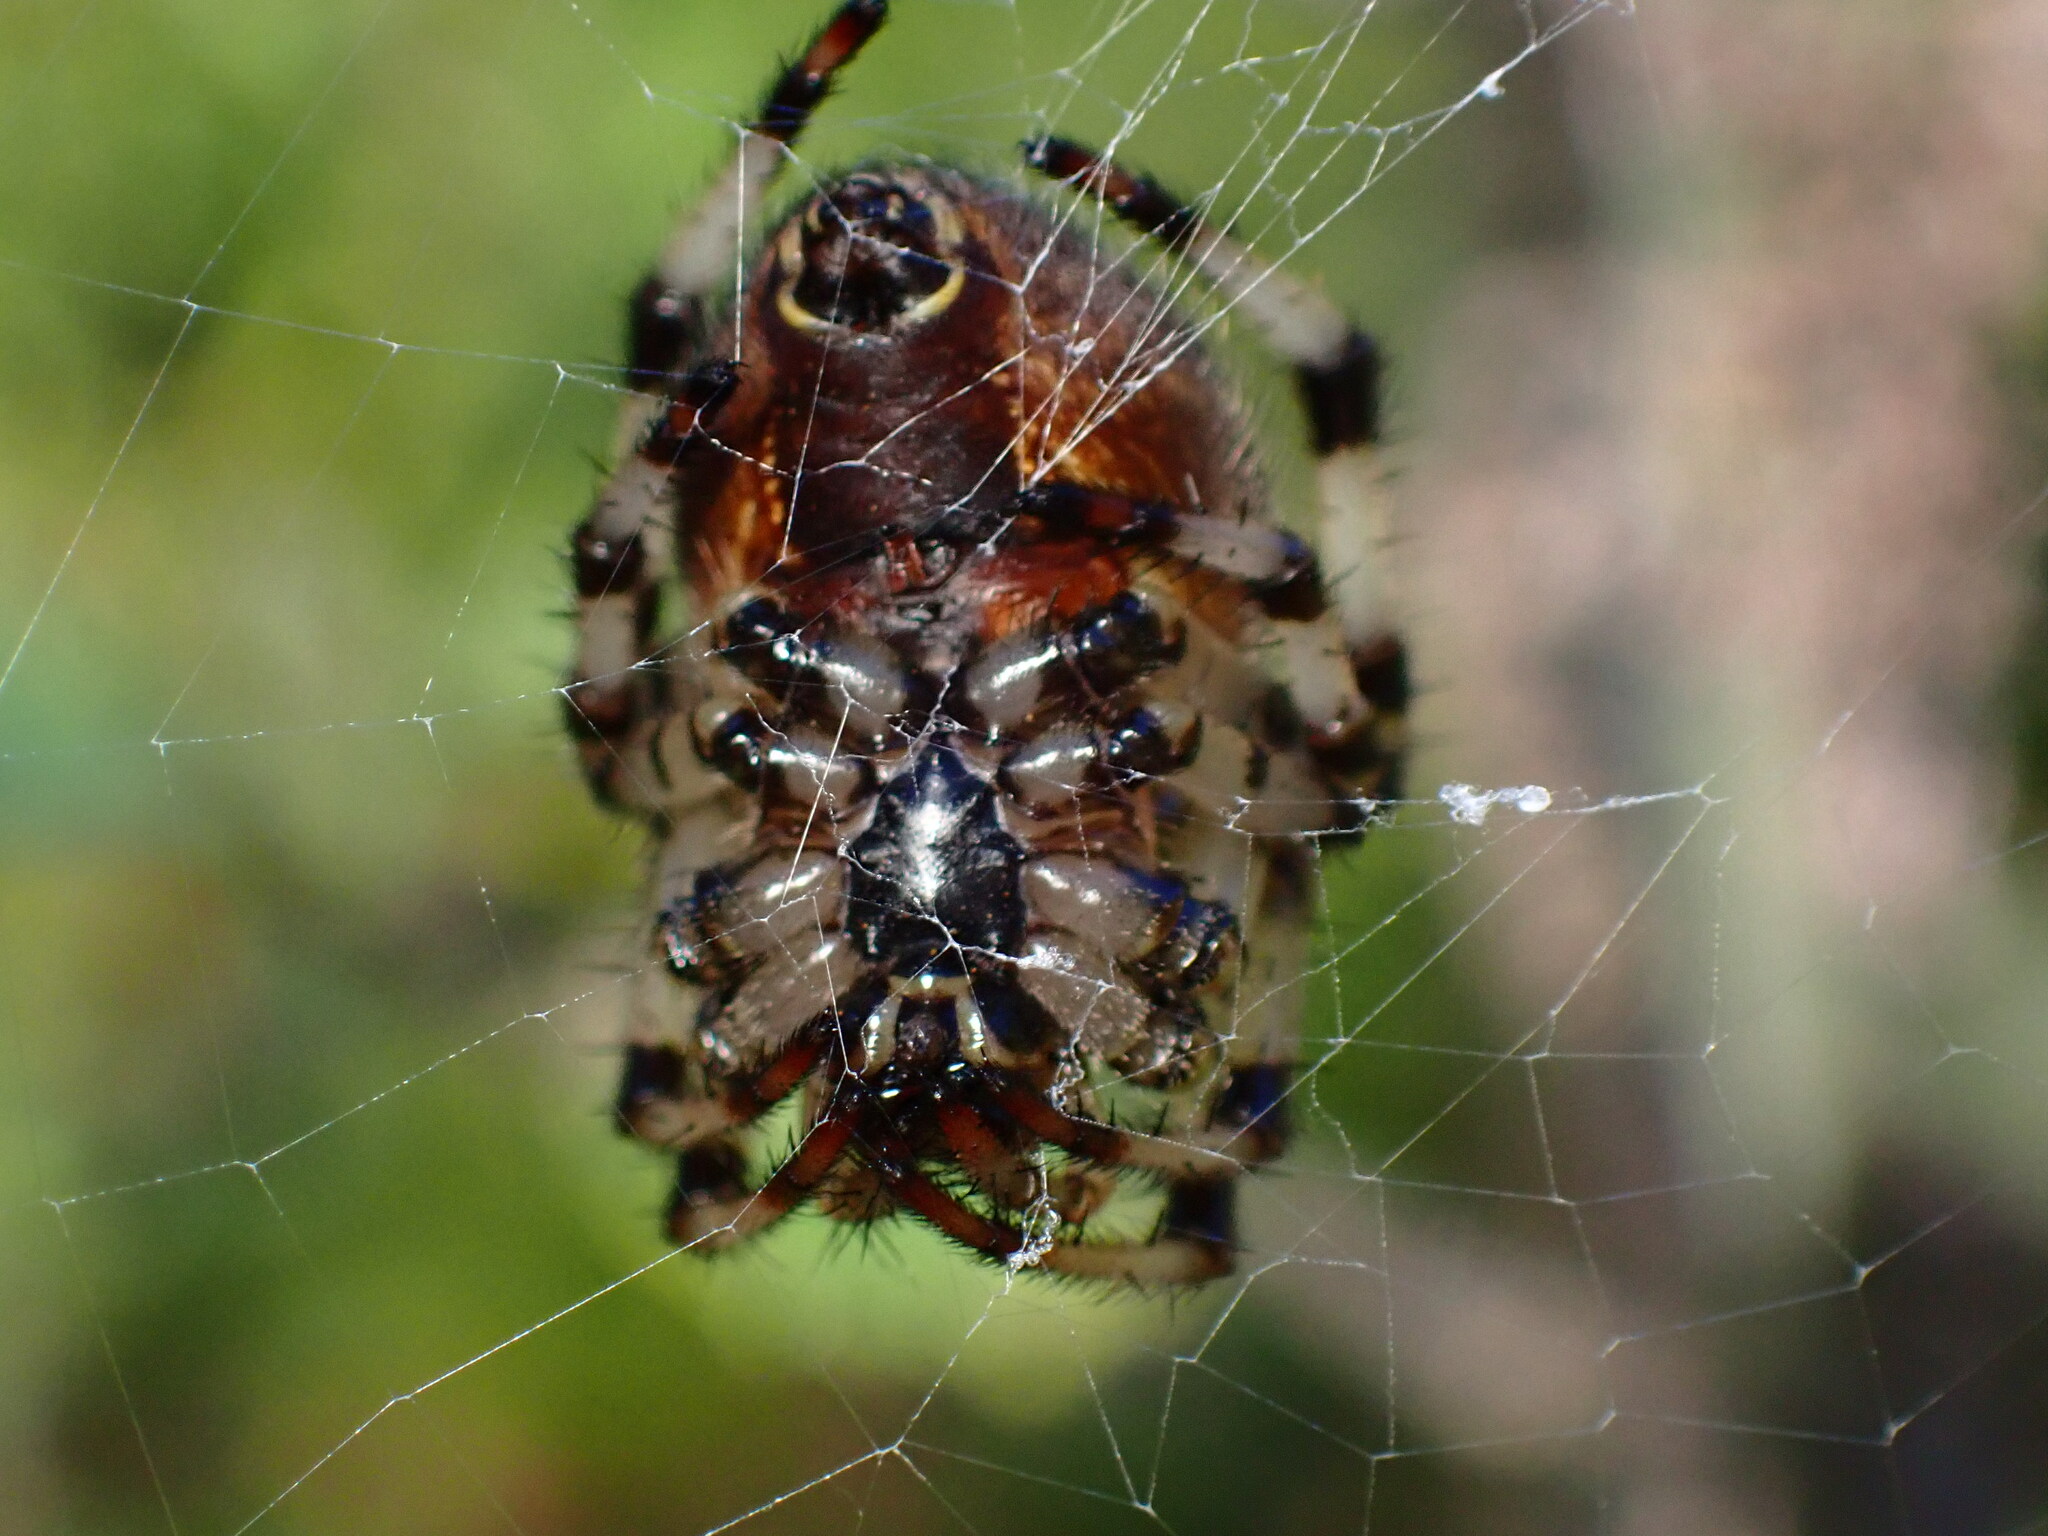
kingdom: Animalia
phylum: Arthropoda
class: Arachnida
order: Araneae
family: Araneidae
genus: Araneus
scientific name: Araneus trifolium
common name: Shamrock orbweaver
